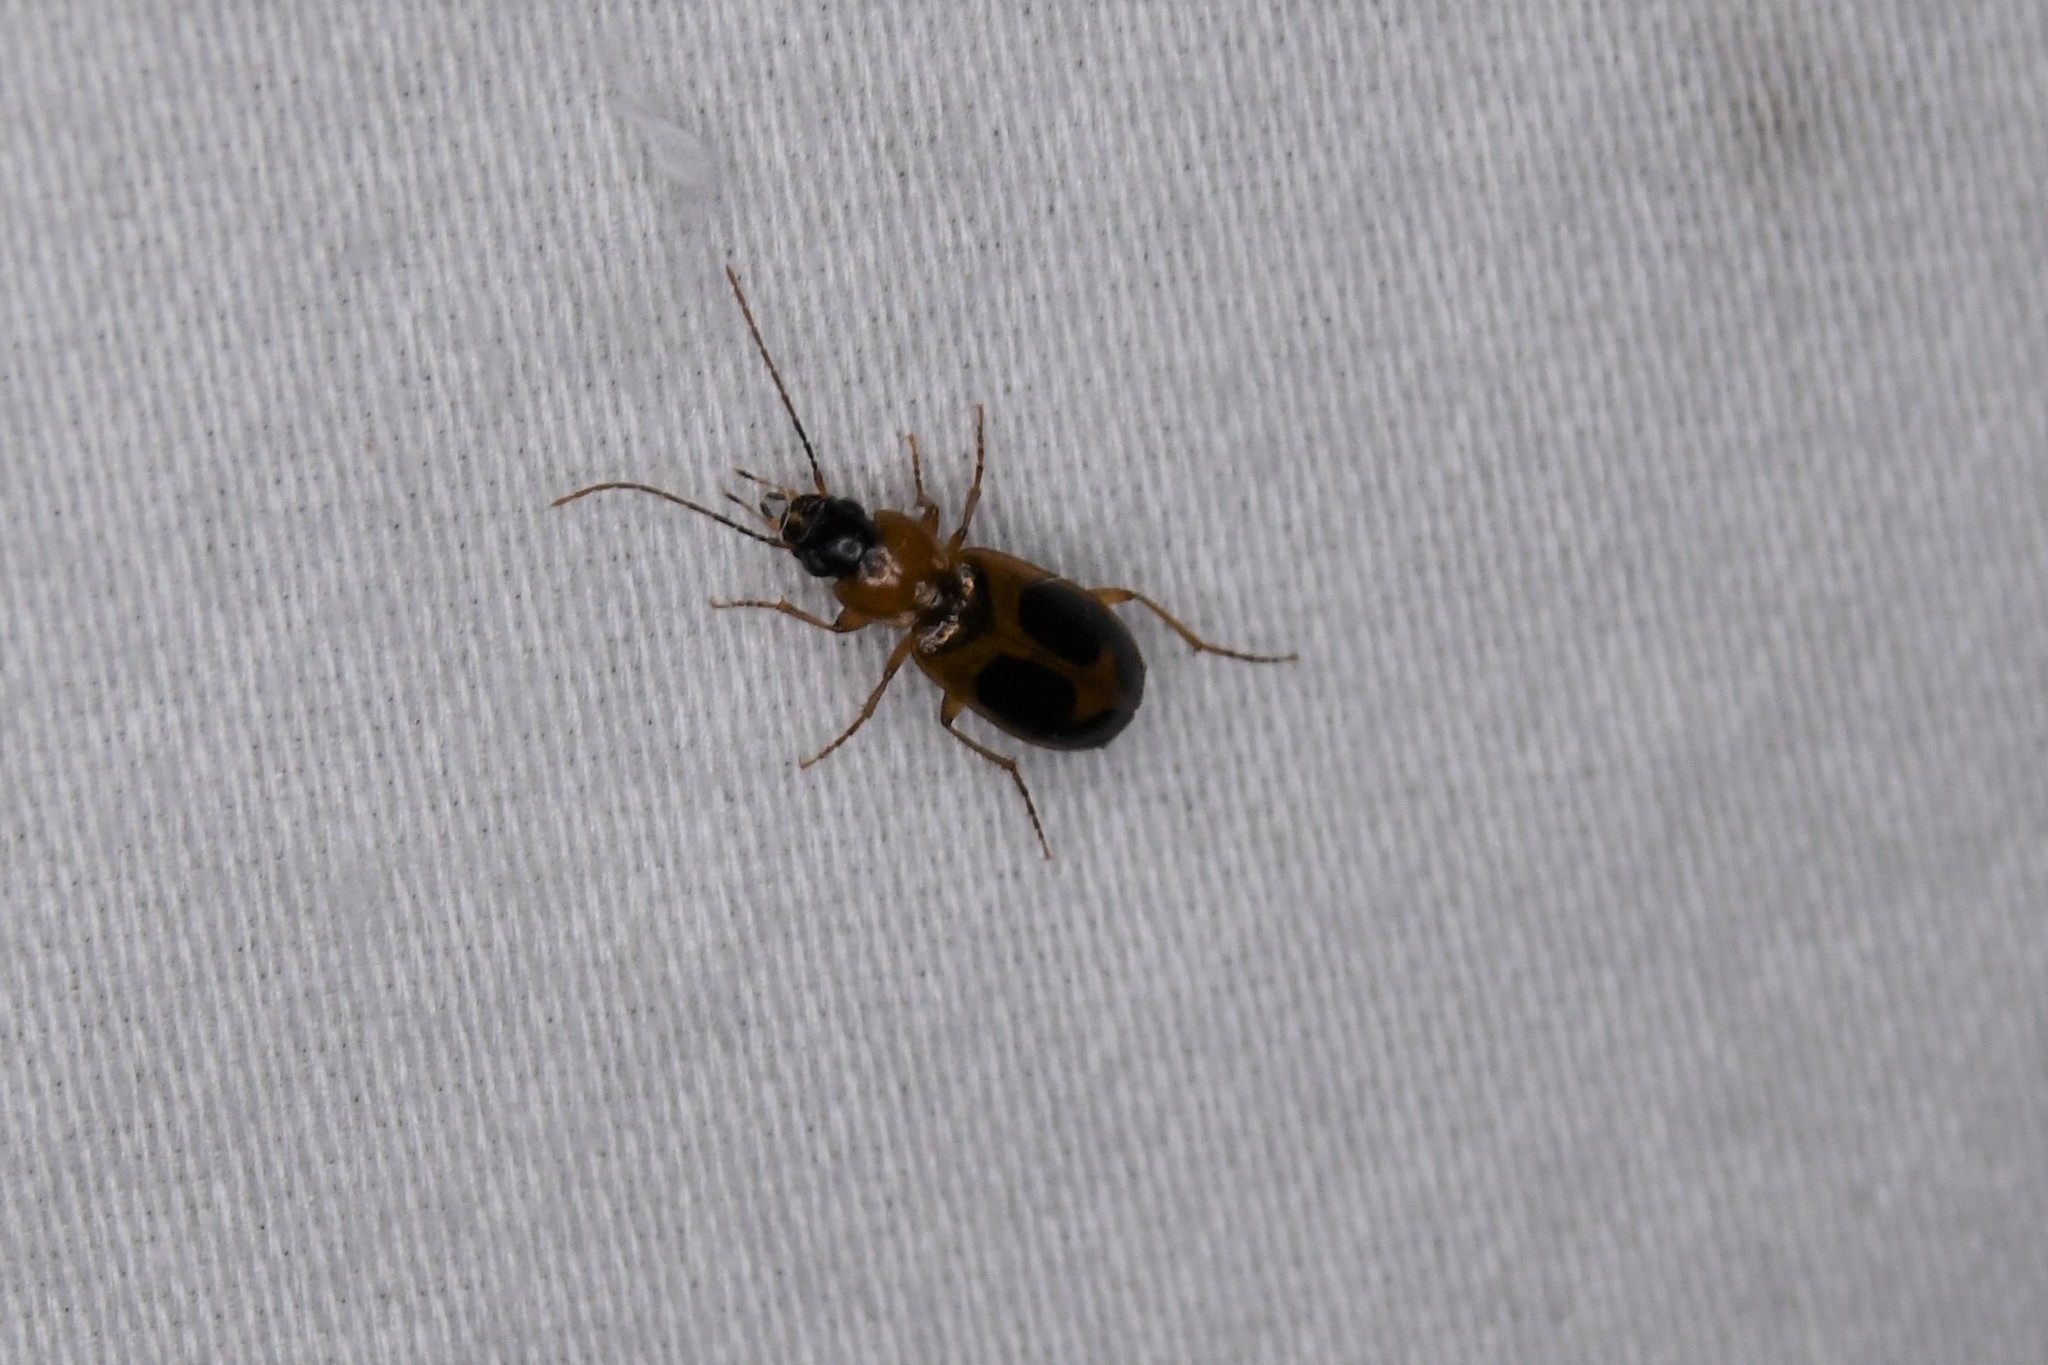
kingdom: Animalia
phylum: Arthropoda
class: Insecta
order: Coleoptera
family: Carabidae
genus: Badister
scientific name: Badister neopulchellus
